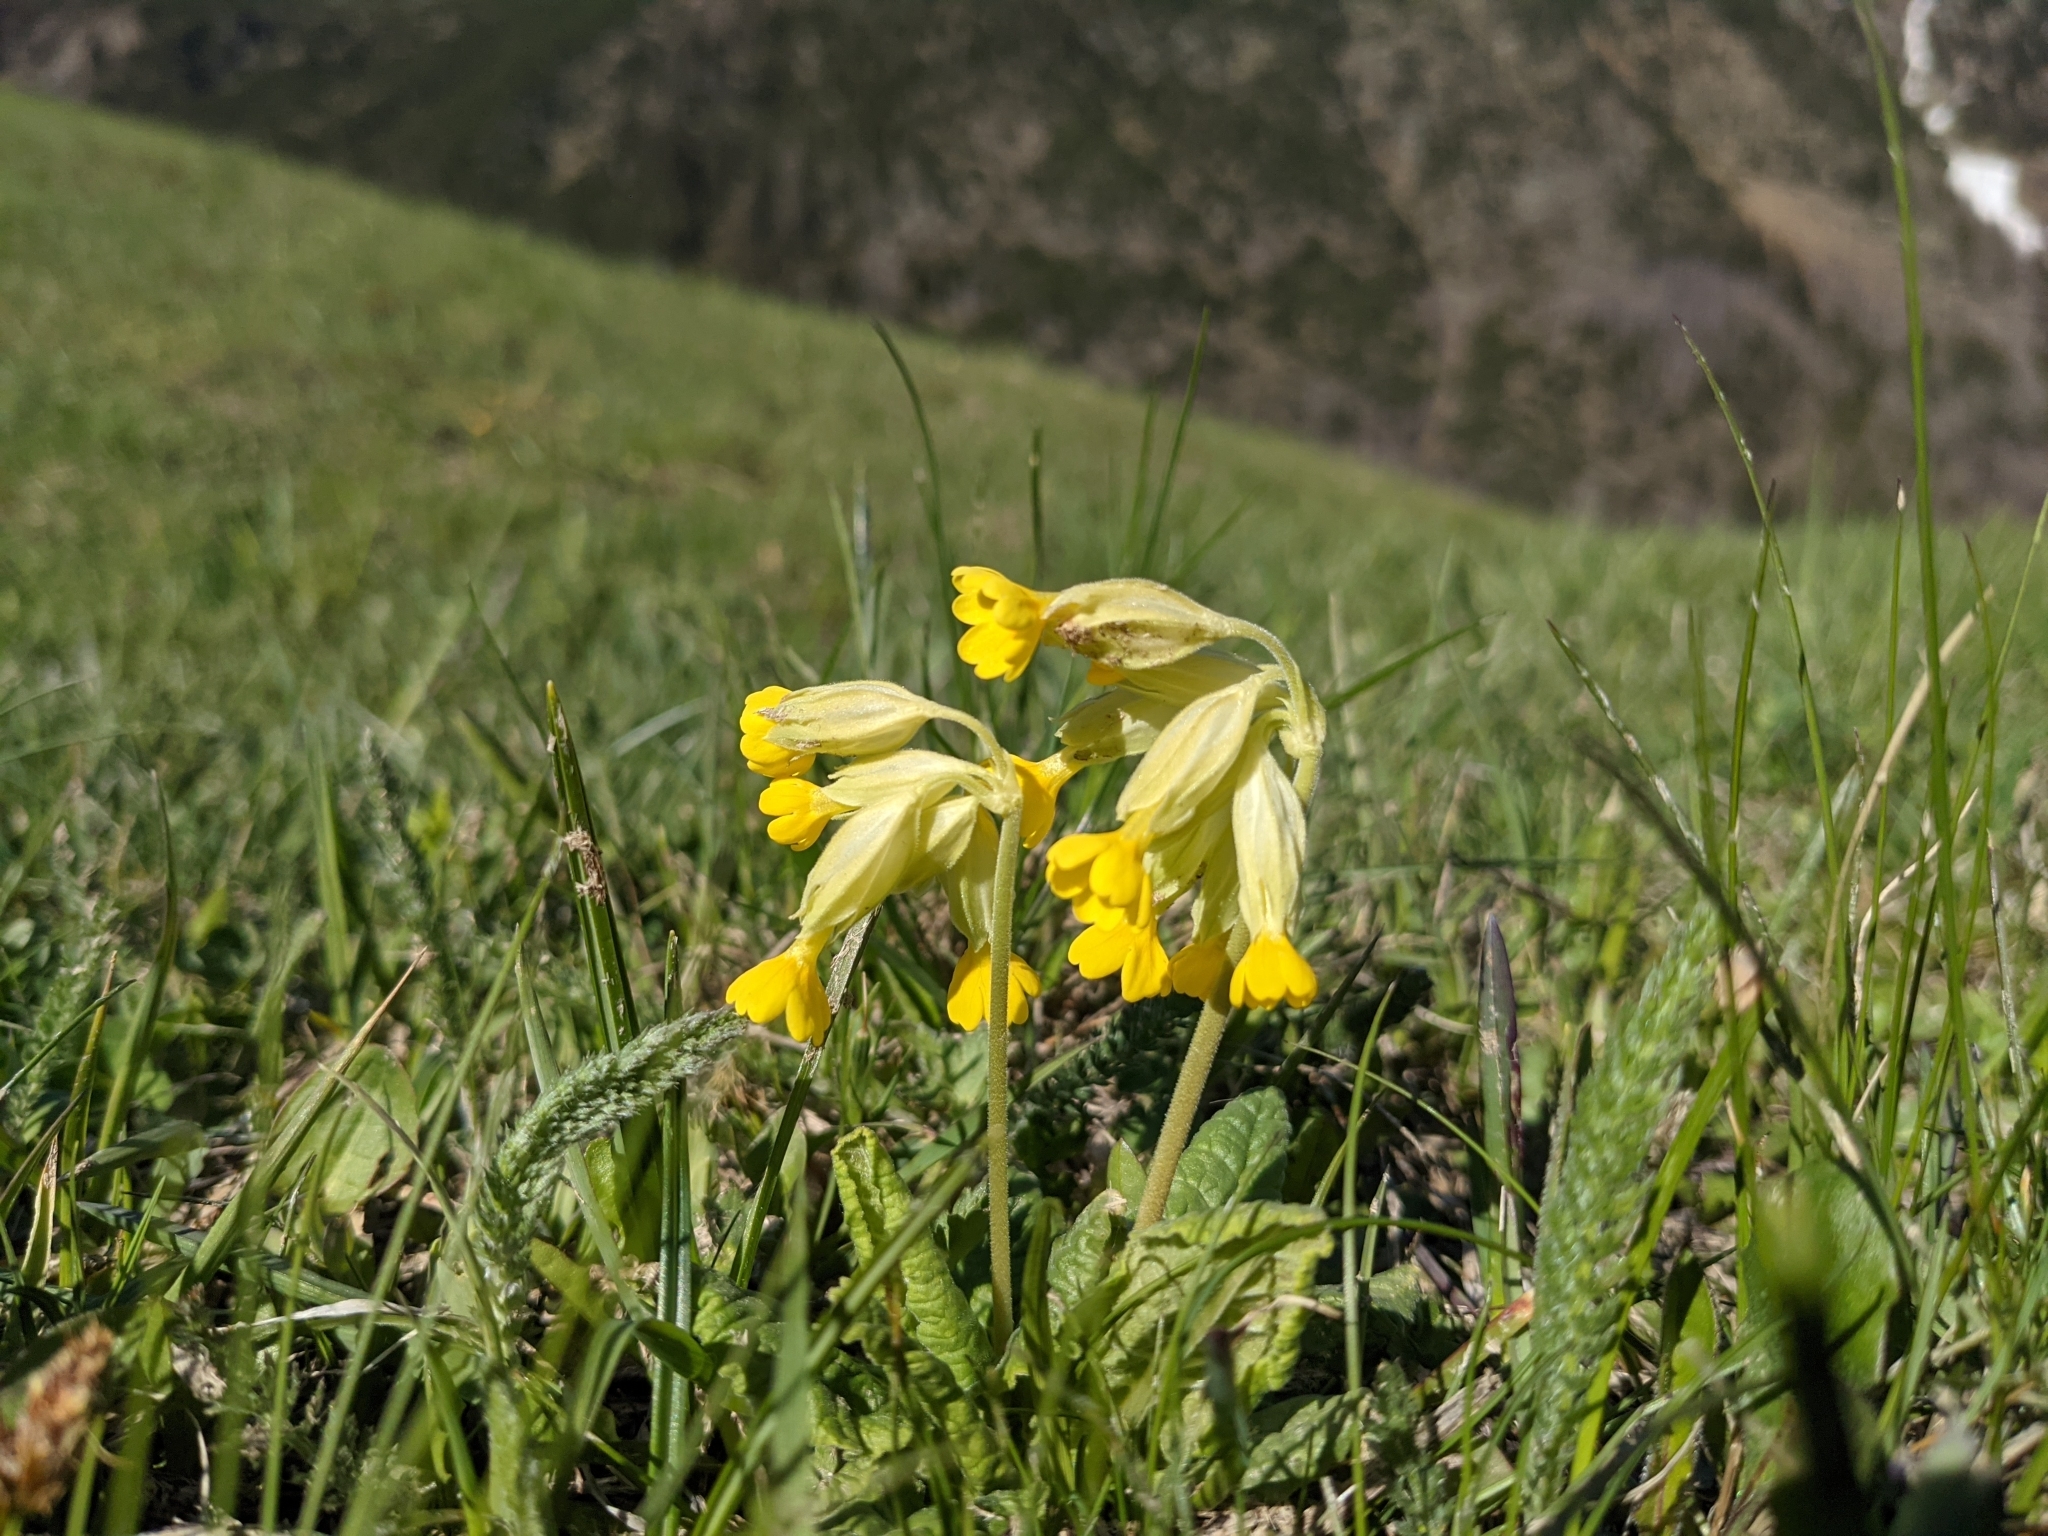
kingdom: Plantae
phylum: Tracheophyta
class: Magnoliopsida
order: Ericales
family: Primulaceae
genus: Primula
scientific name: Primula veris
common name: Cowslip
